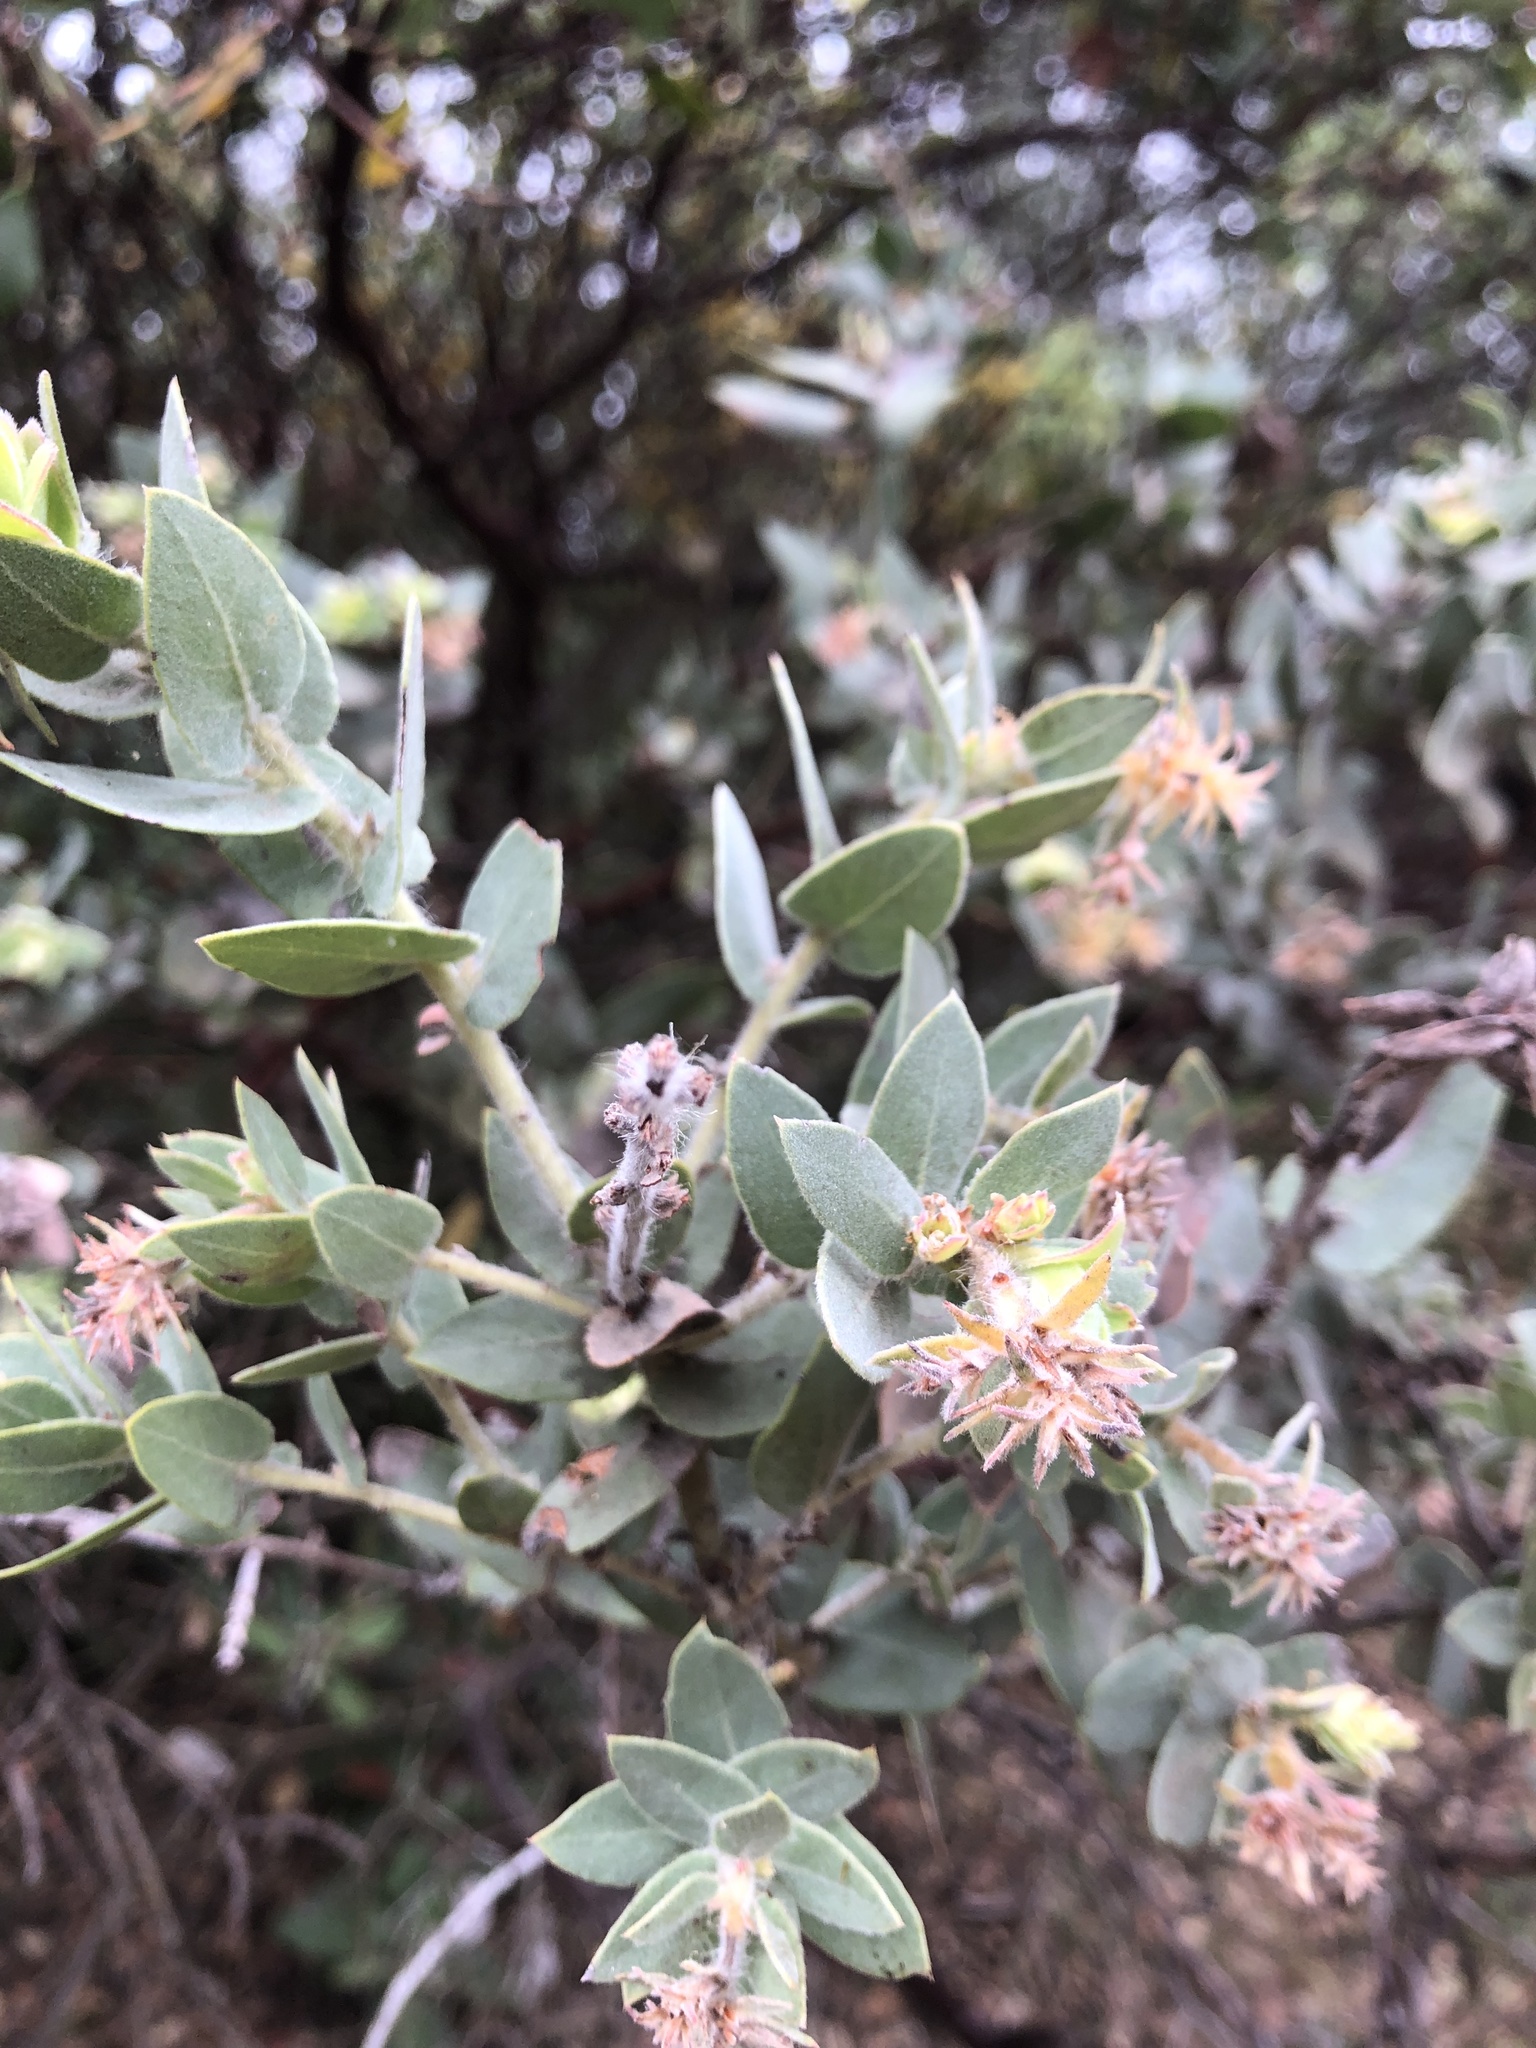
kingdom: Plantae
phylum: Tracheophyta
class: Magnoliopsida
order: Ericales
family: Ericaceae
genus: Arctostaphylos
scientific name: Arctostaphylos auriculata
